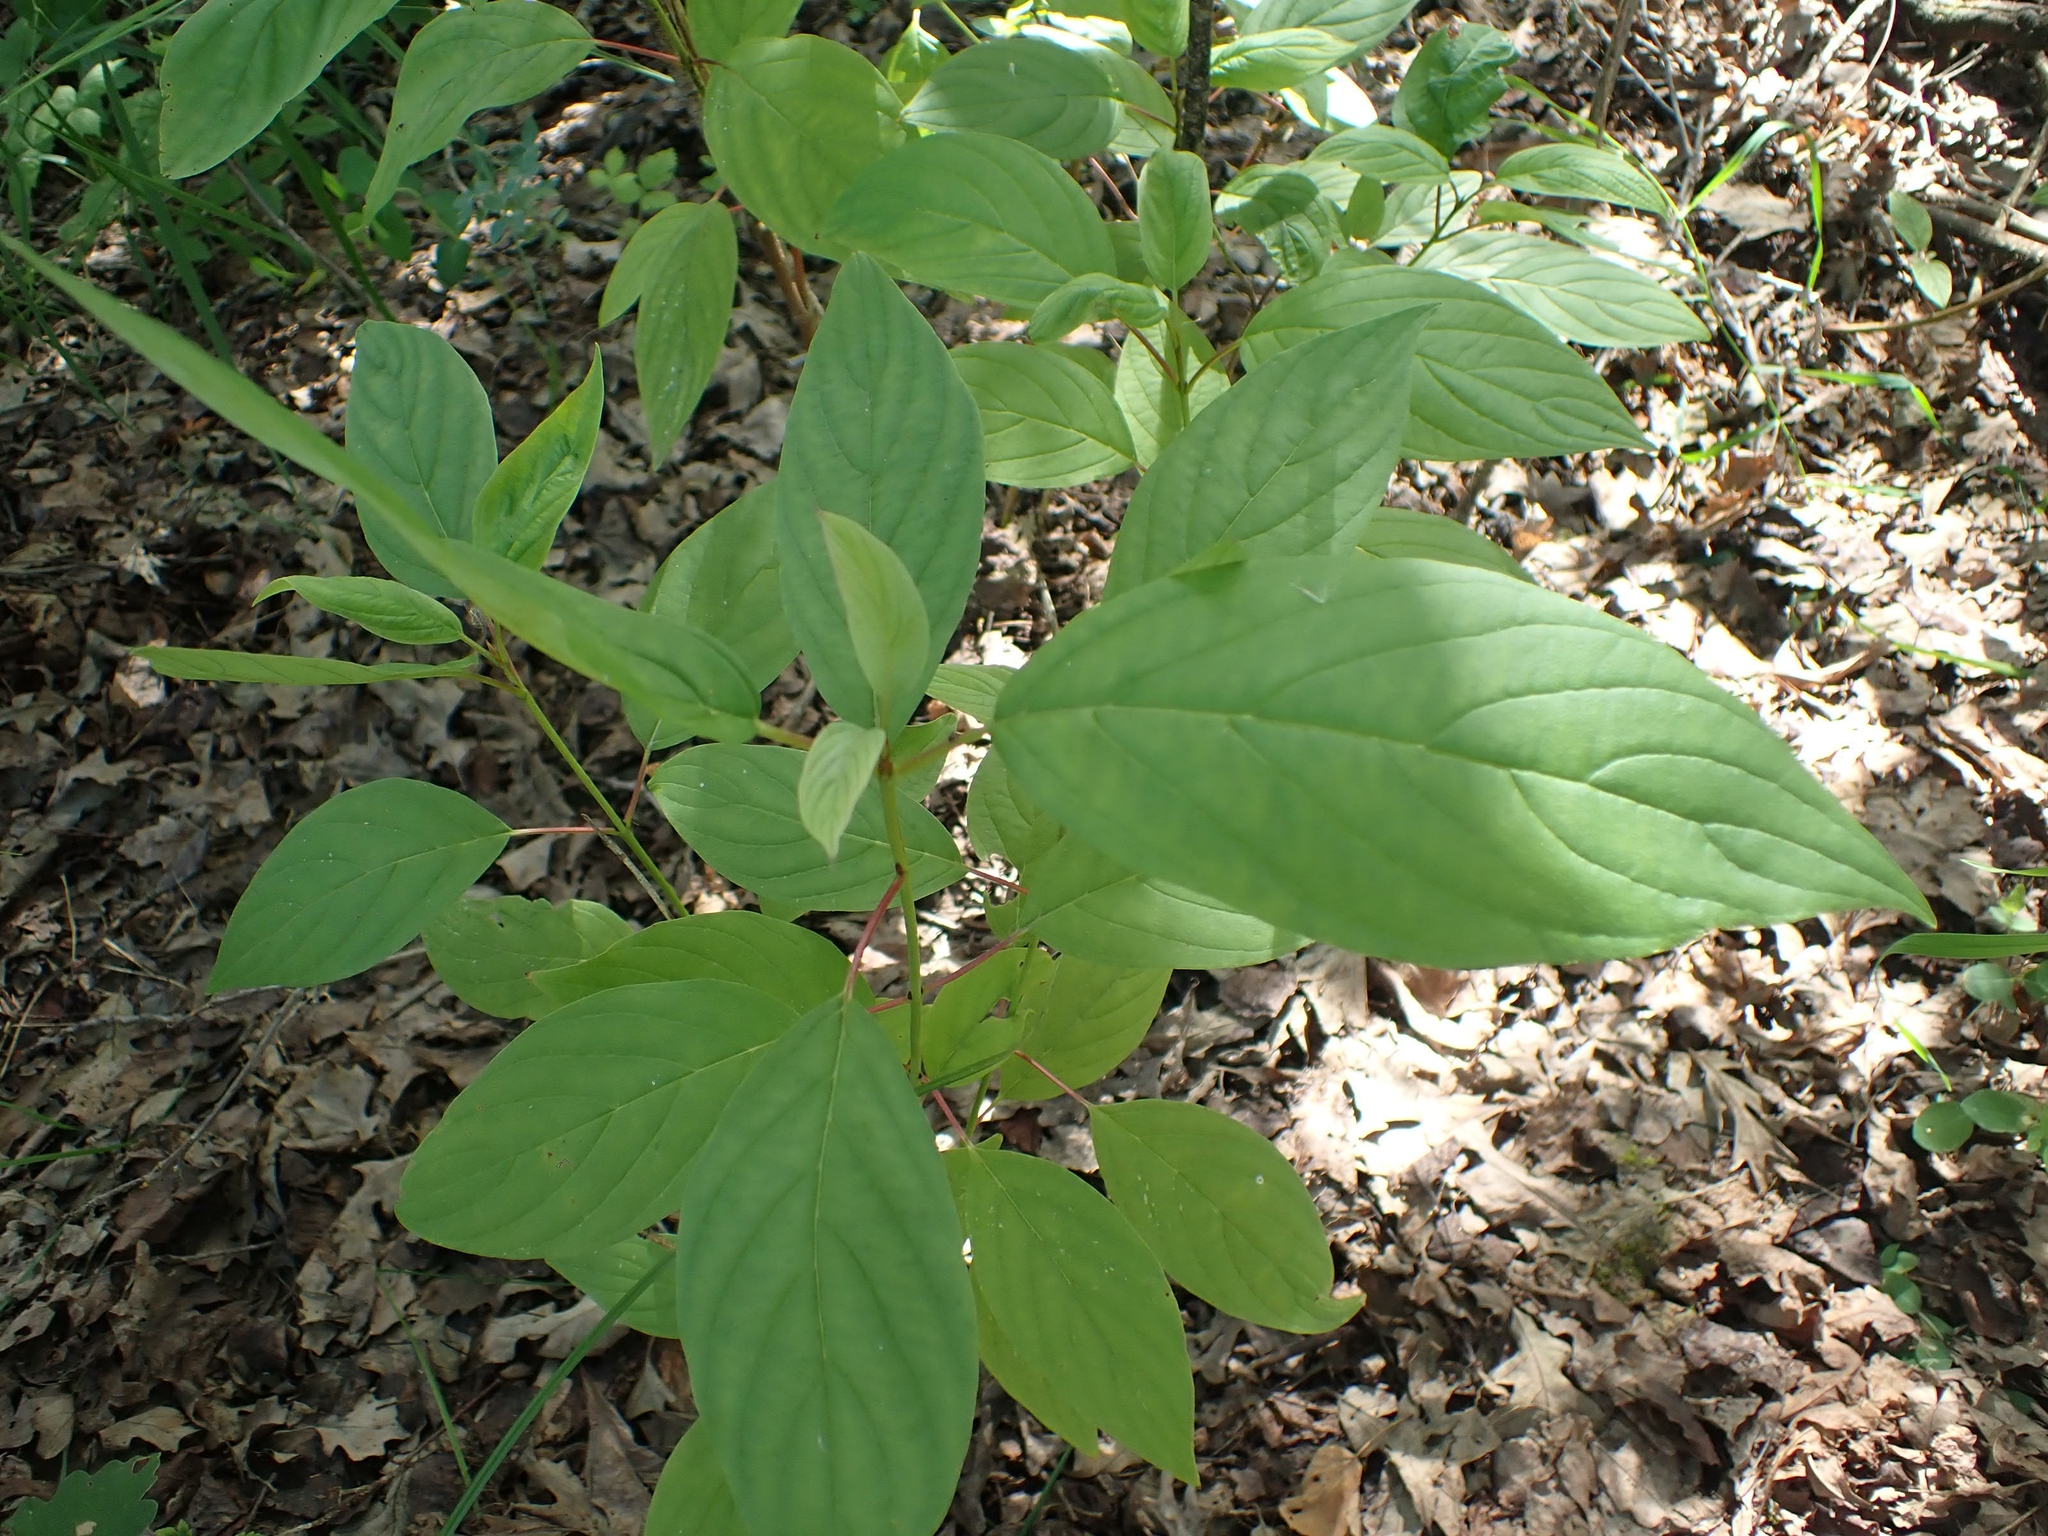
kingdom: Plantae
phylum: Tracheophyta
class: Magnoliopsida
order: Cornales
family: Cornaceae
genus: Cornus
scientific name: Cornus sericea
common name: Red-osier dogwood
